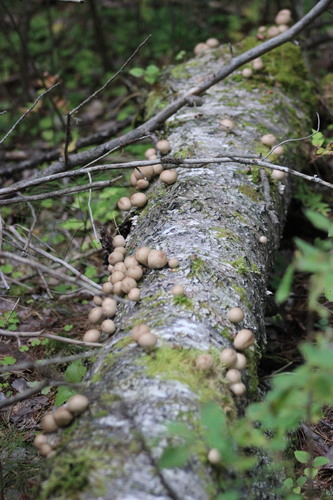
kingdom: Protozoa
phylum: Mycetozoa
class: Myxomycetes
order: Cribrariales
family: Tubiferaceae
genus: Lycogala
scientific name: Lycogala epidendrum
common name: Wolf's milk
